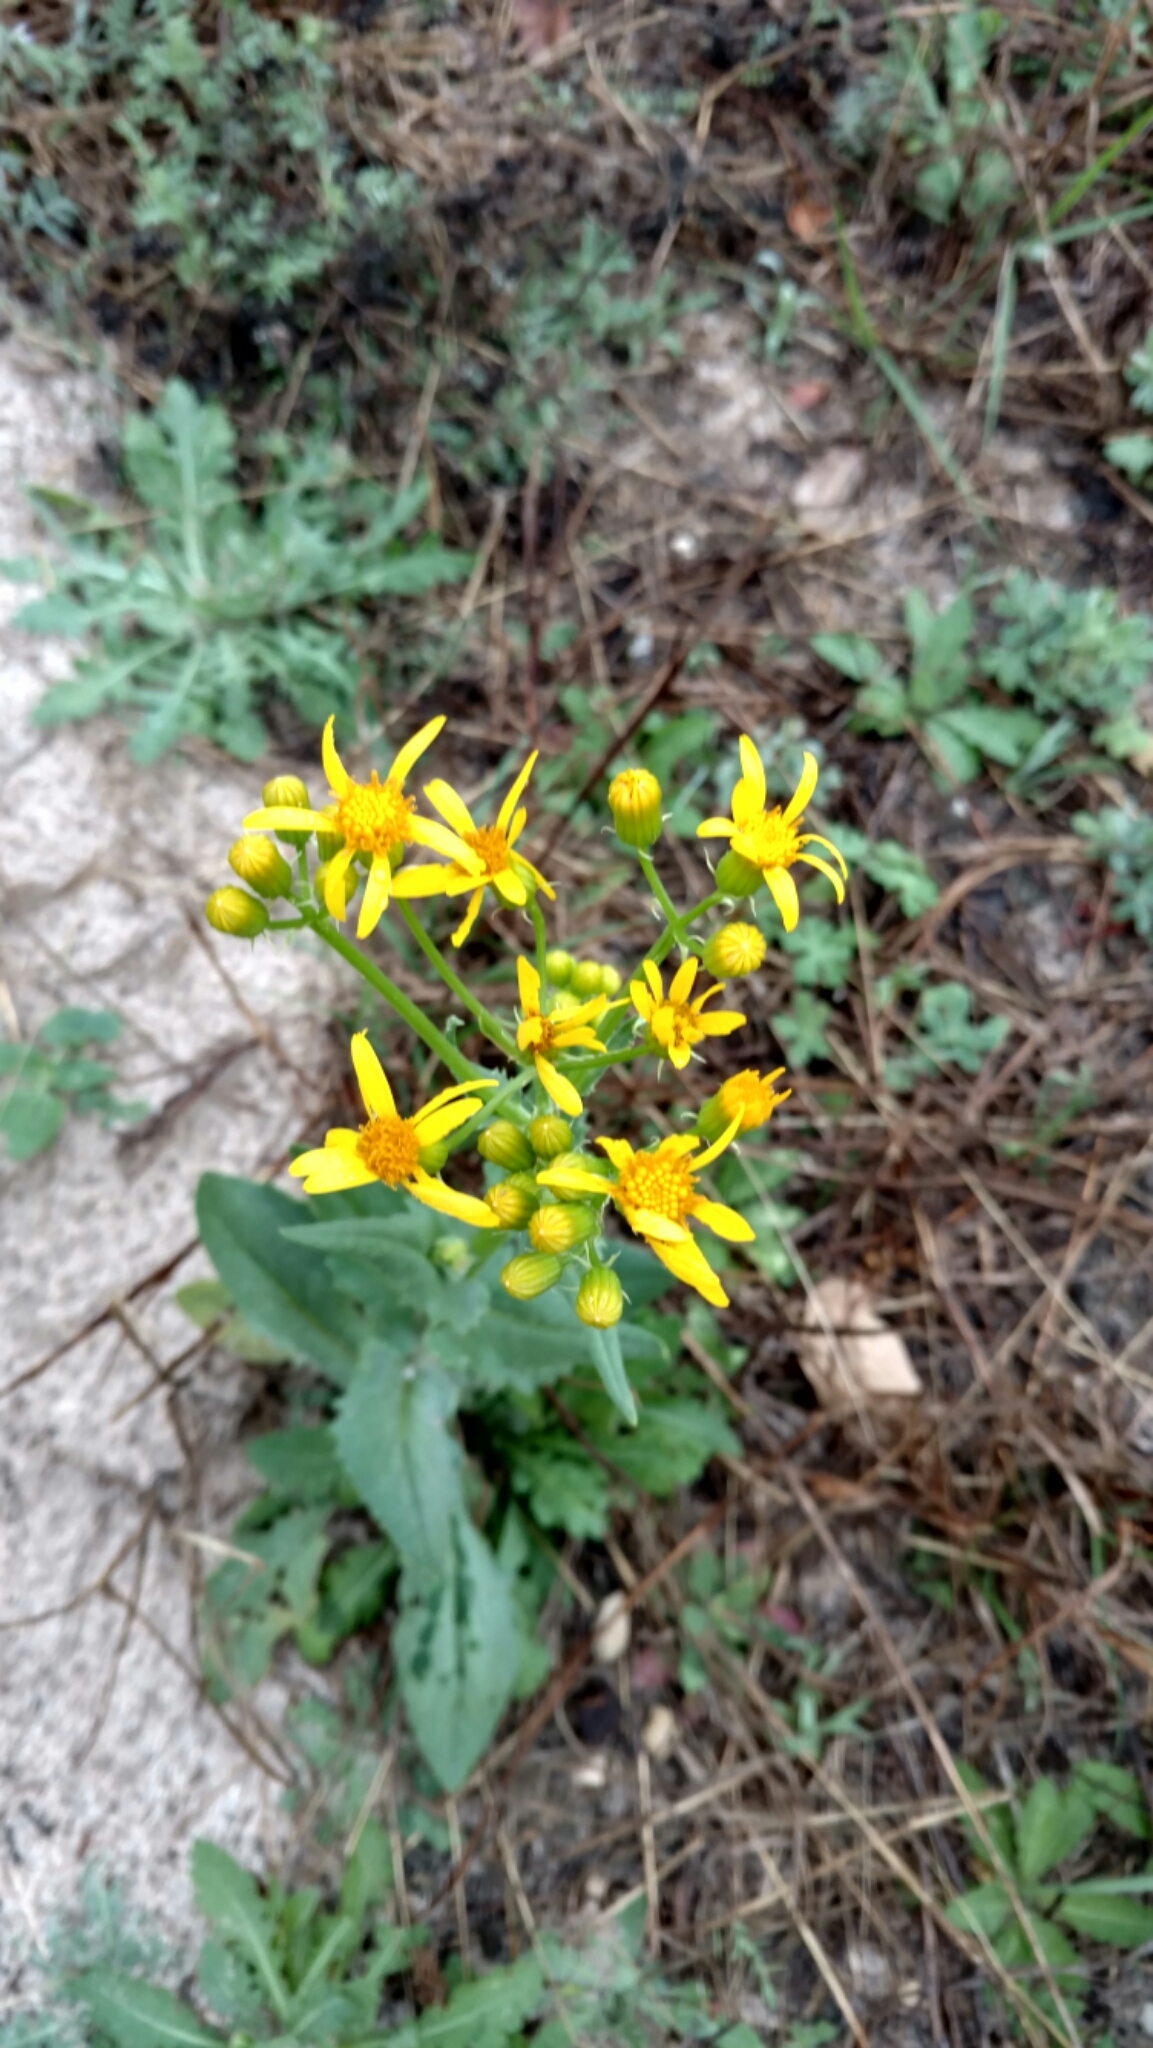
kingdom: Plantae
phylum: Tracheophyta
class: Magnoliopsida
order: Asterales
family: Asteraceae
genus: Senecio
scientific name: Senecio ampullaceus
